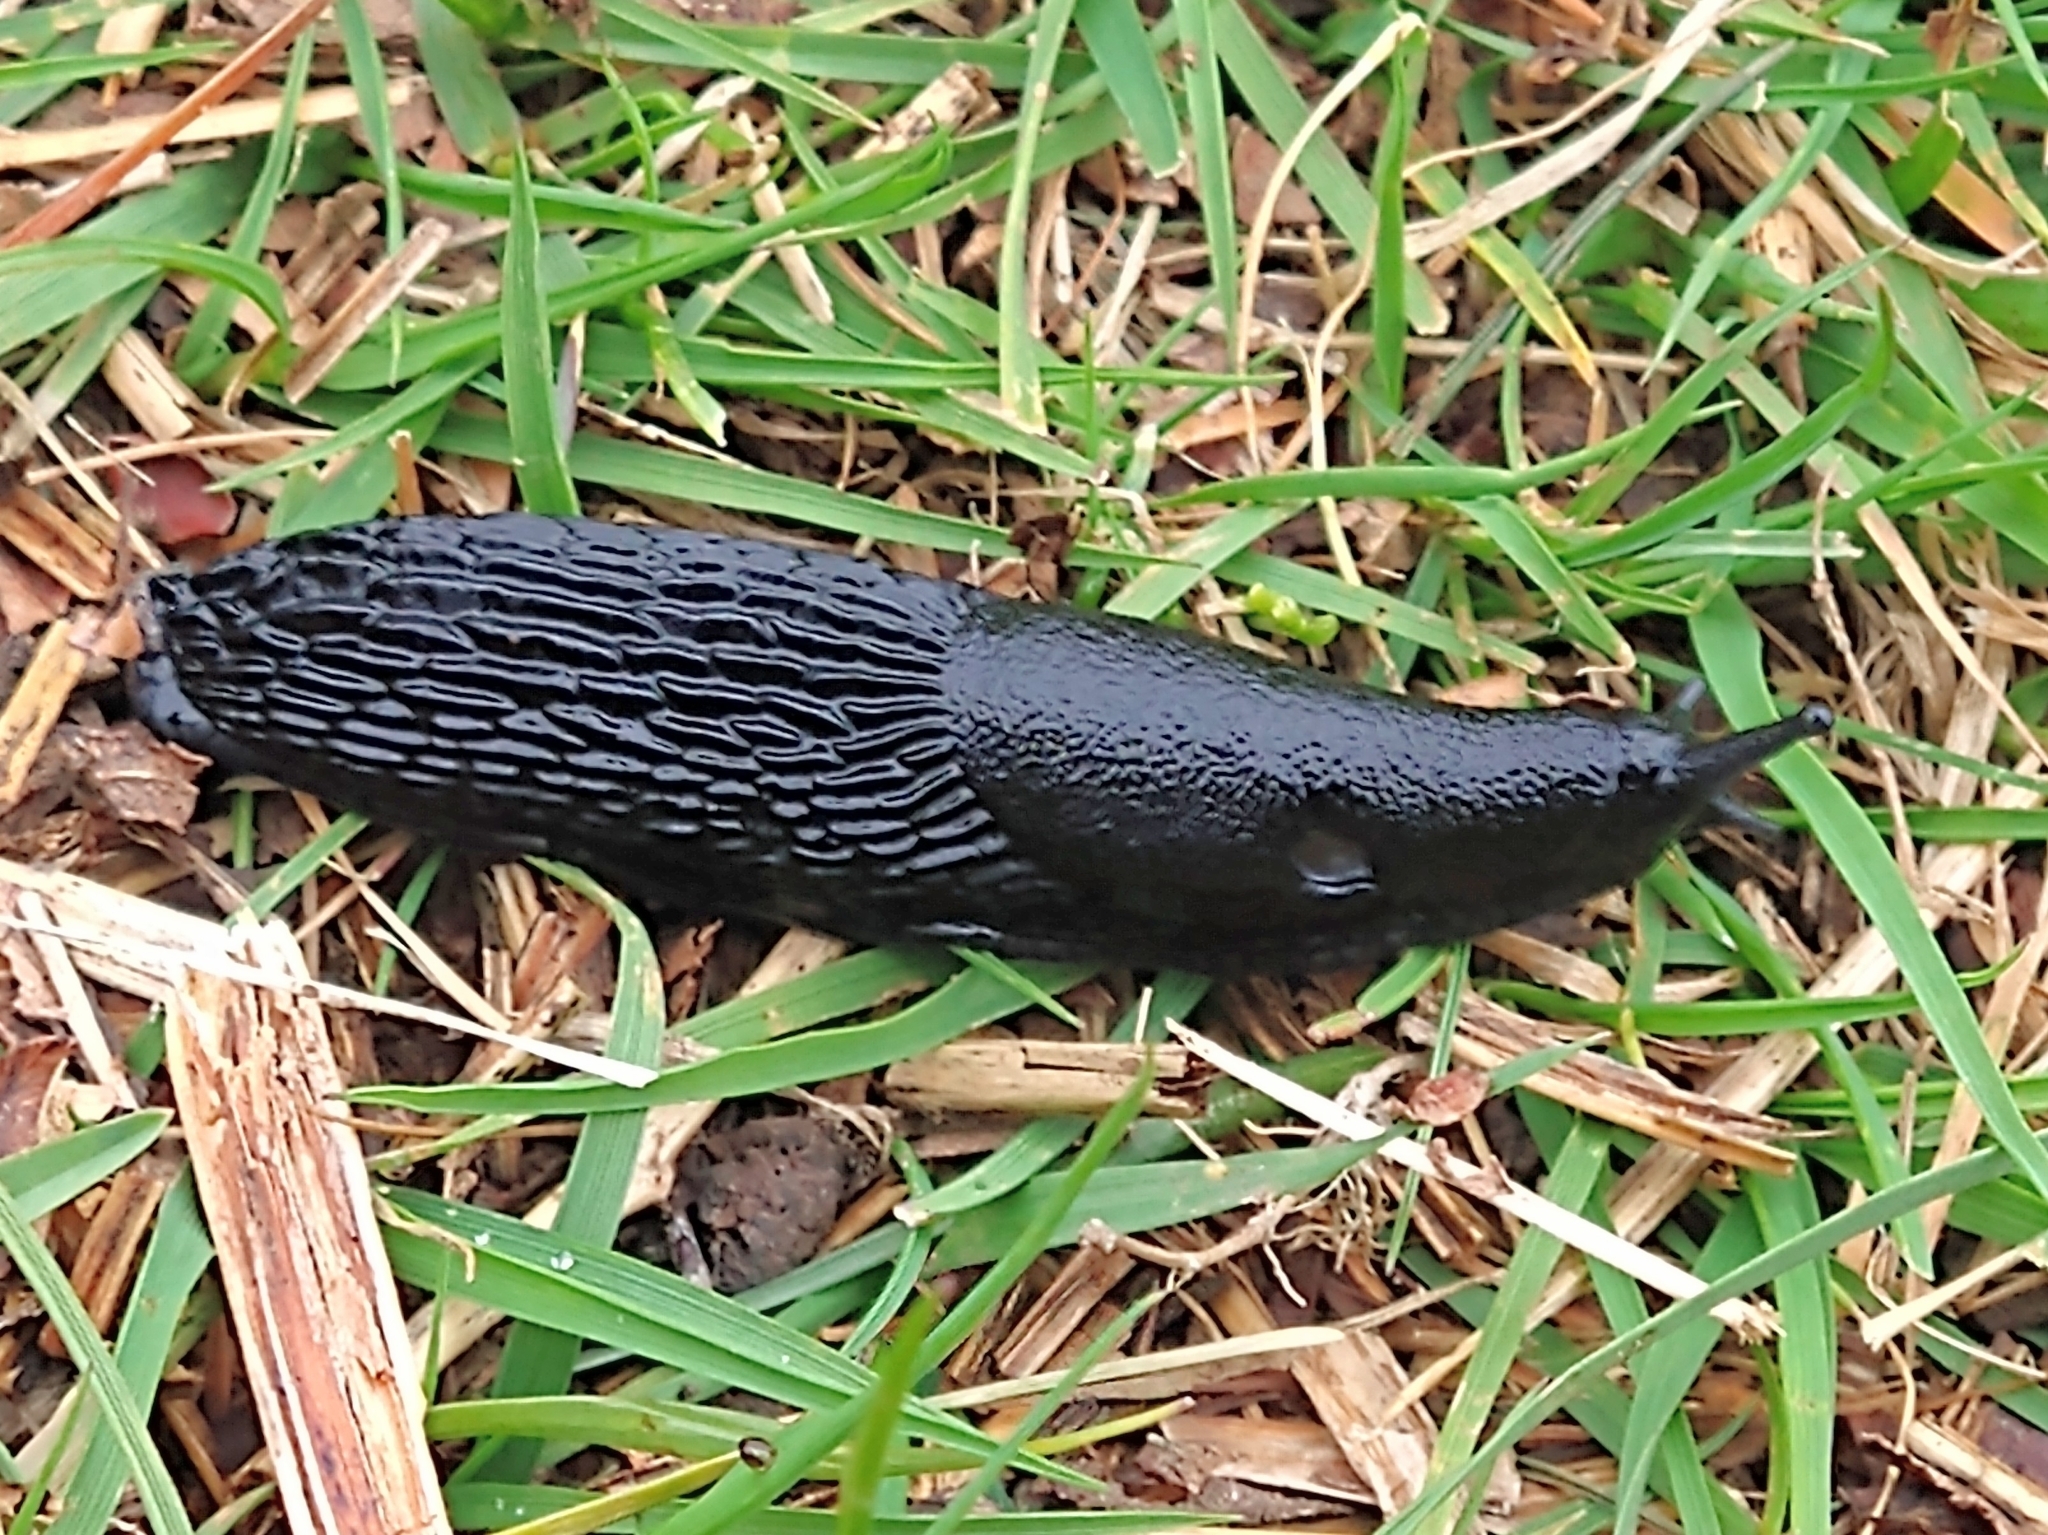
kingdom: Animalia
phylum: Mollusca
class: Gastropoda
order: Stylommatophora
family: Arionidae
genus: Arion
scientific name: Arion ater
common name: Black arion
